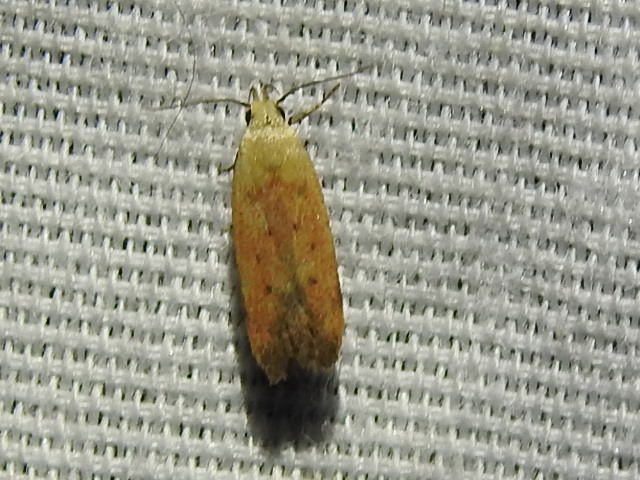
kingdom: Animalia
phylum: Arthropoda
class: Insecta
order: Lepidoptera
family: Gelechiidae
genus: Anacampsis
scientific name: Anacampsis fullonella
